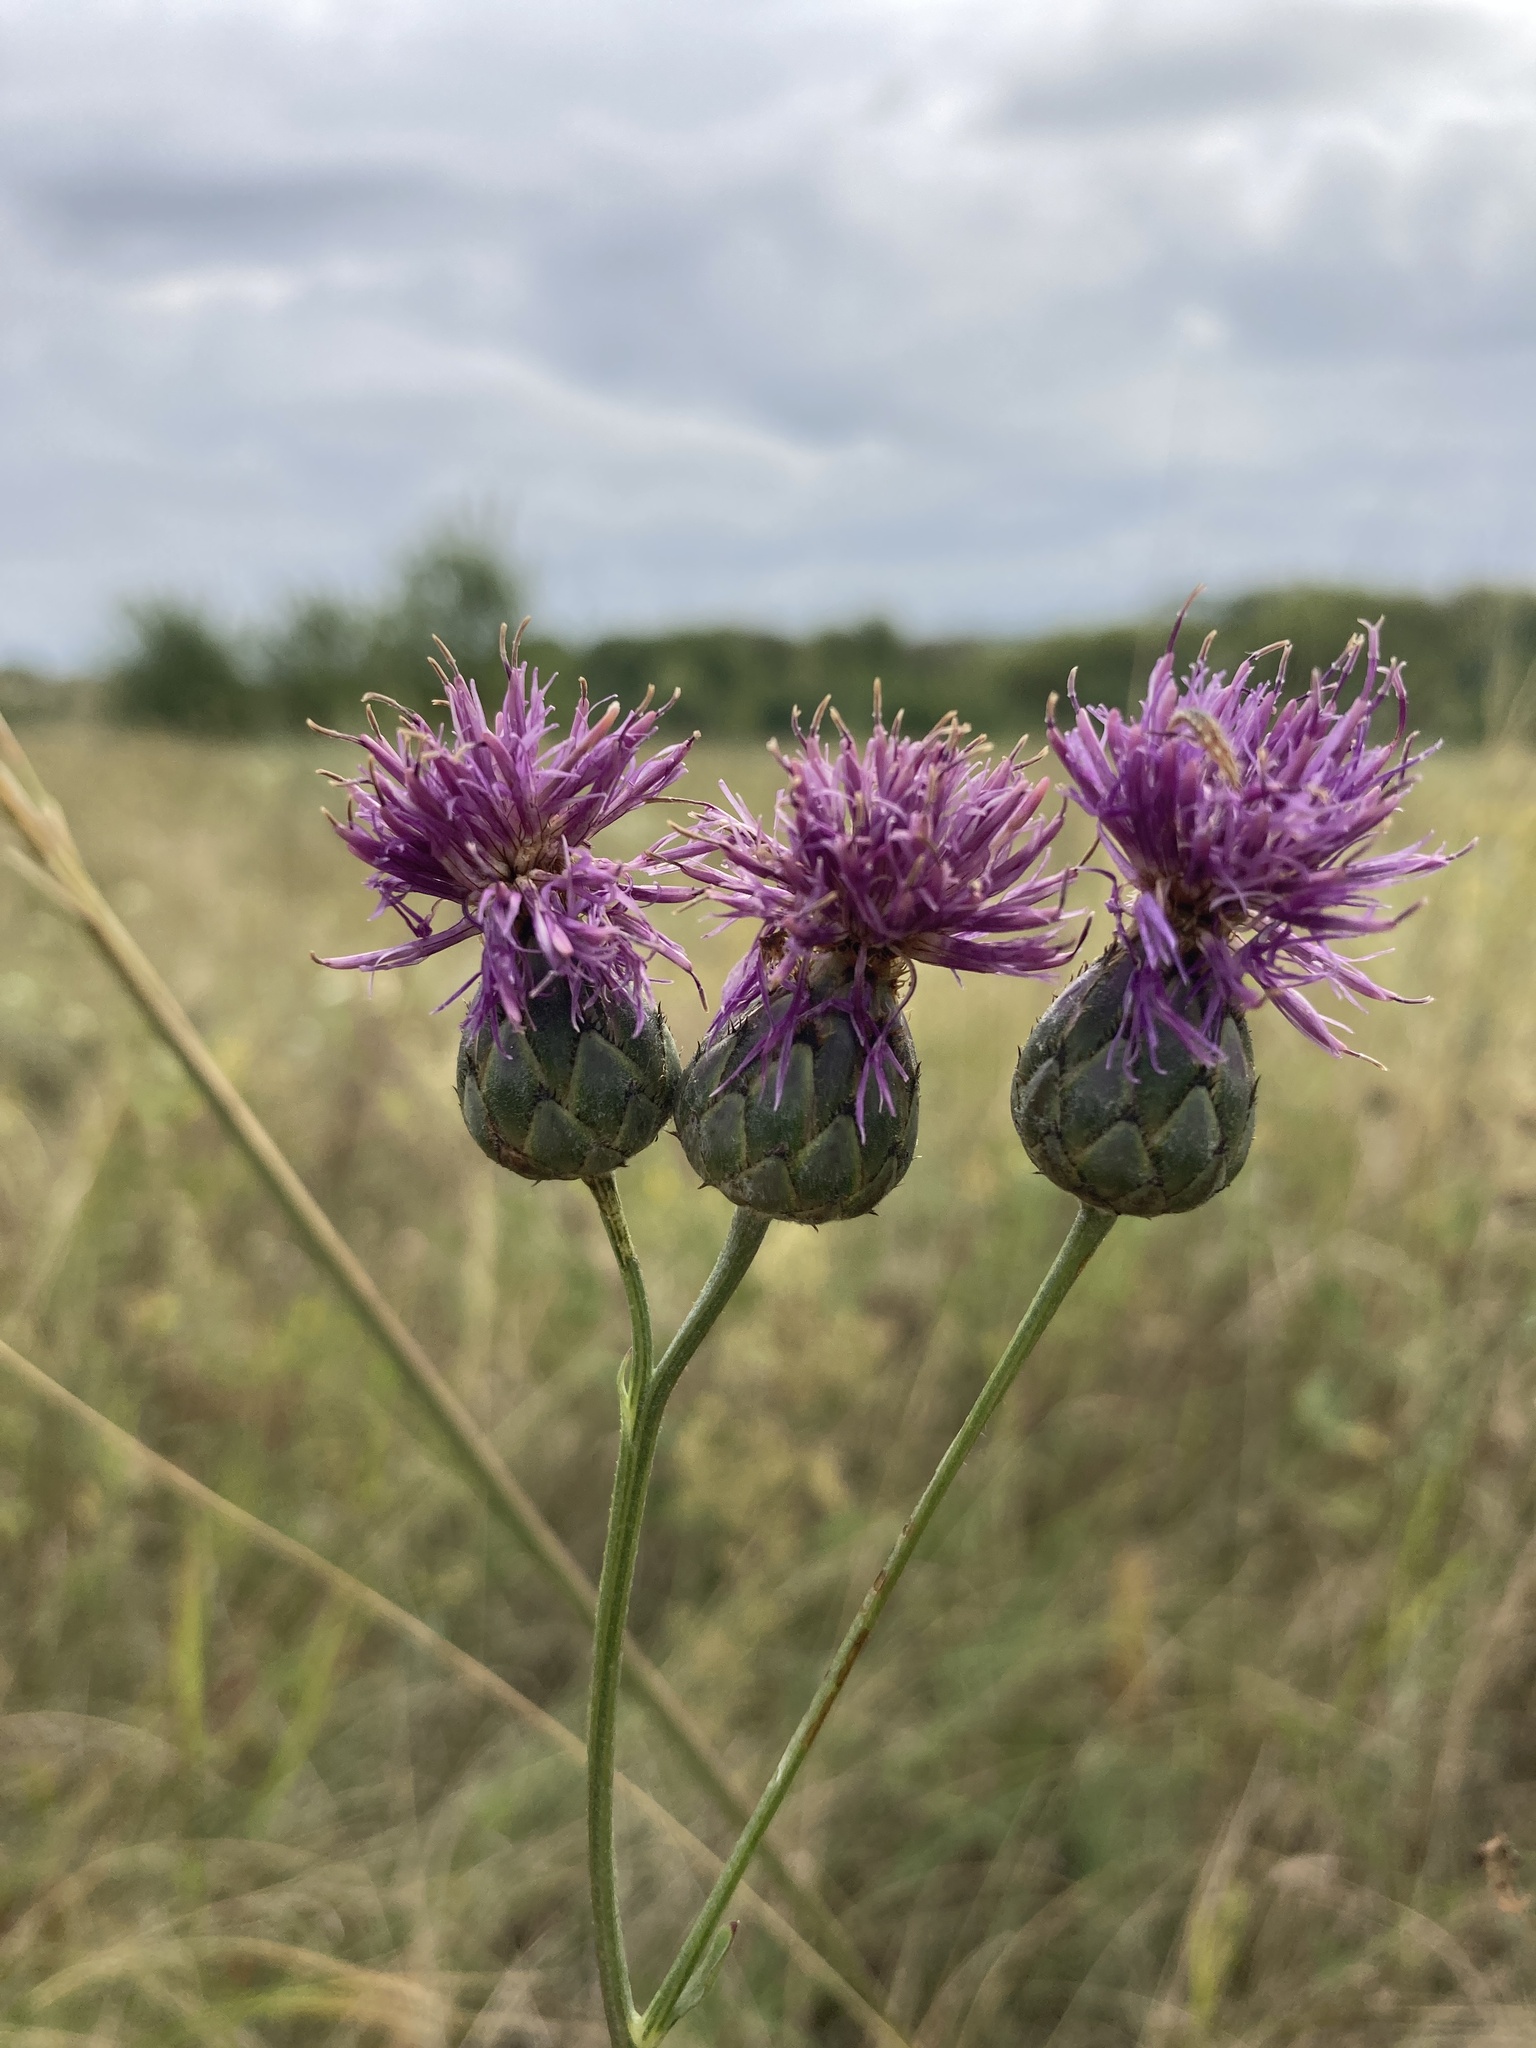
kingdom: Plantae
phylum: Tracheophyta
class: Magnoliopsida
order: Asterales
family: Asteraceae
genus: Centaurea
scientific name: Centaurea adpressa
